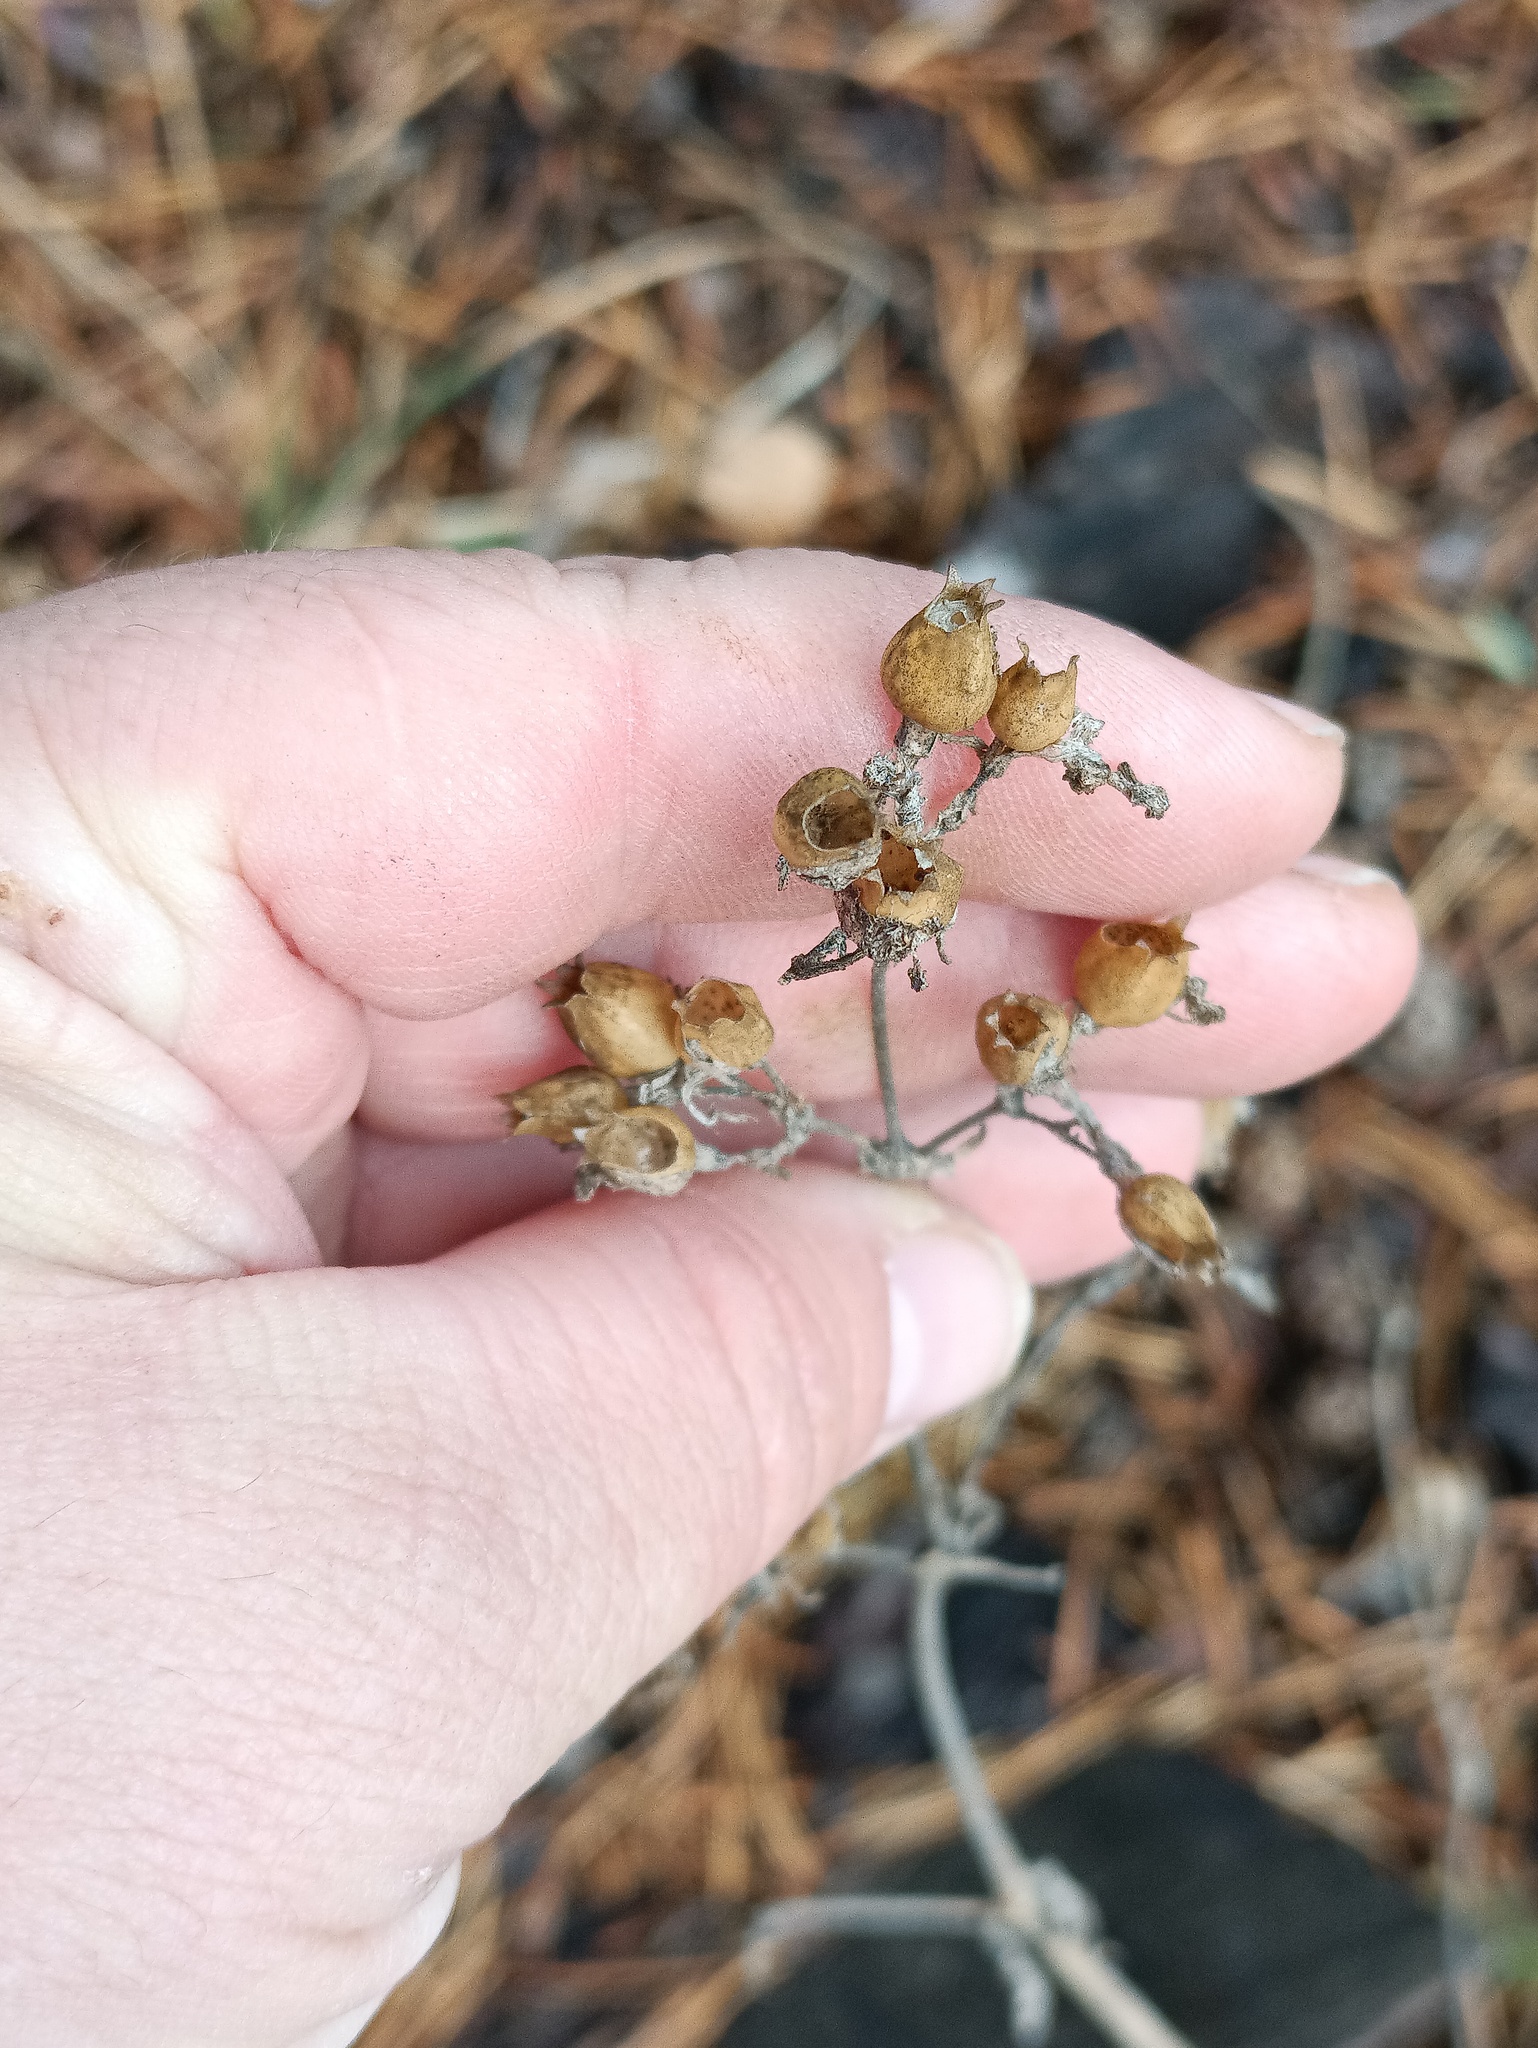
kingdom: Plantae
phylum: Tracheophyta
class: Magnoliopsida
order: Caryophyllales
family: Caryophyllaceae
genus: Silene
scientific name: Silene nutans
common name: Nottingham catchfly
